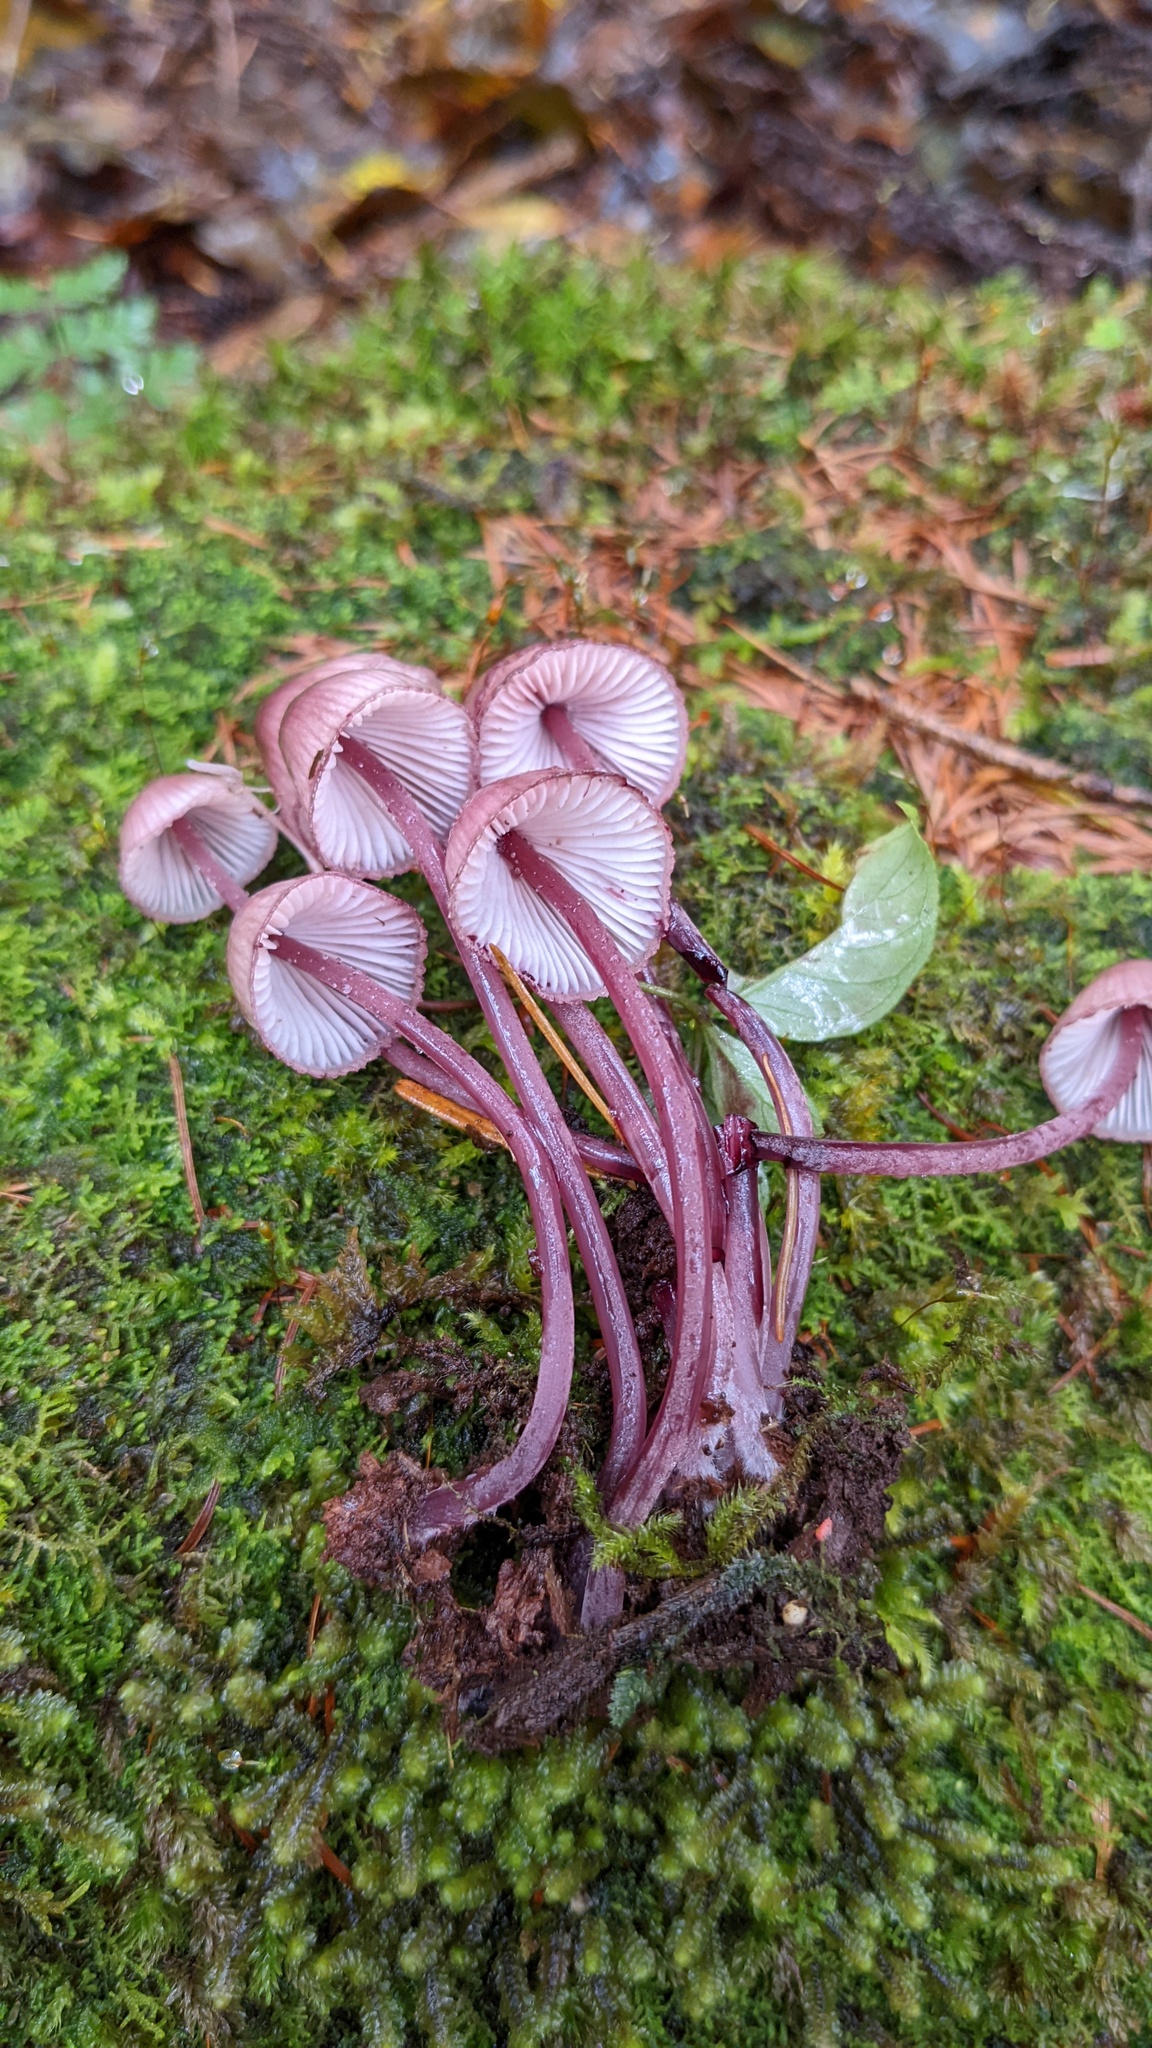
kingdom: Fungi
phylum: Basidiomycota
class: Agaricomycetes
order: Agaricales
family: Mycenaceae
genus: Mycena
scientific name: Mycena haematopus
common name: Burgundydrop bonnet
